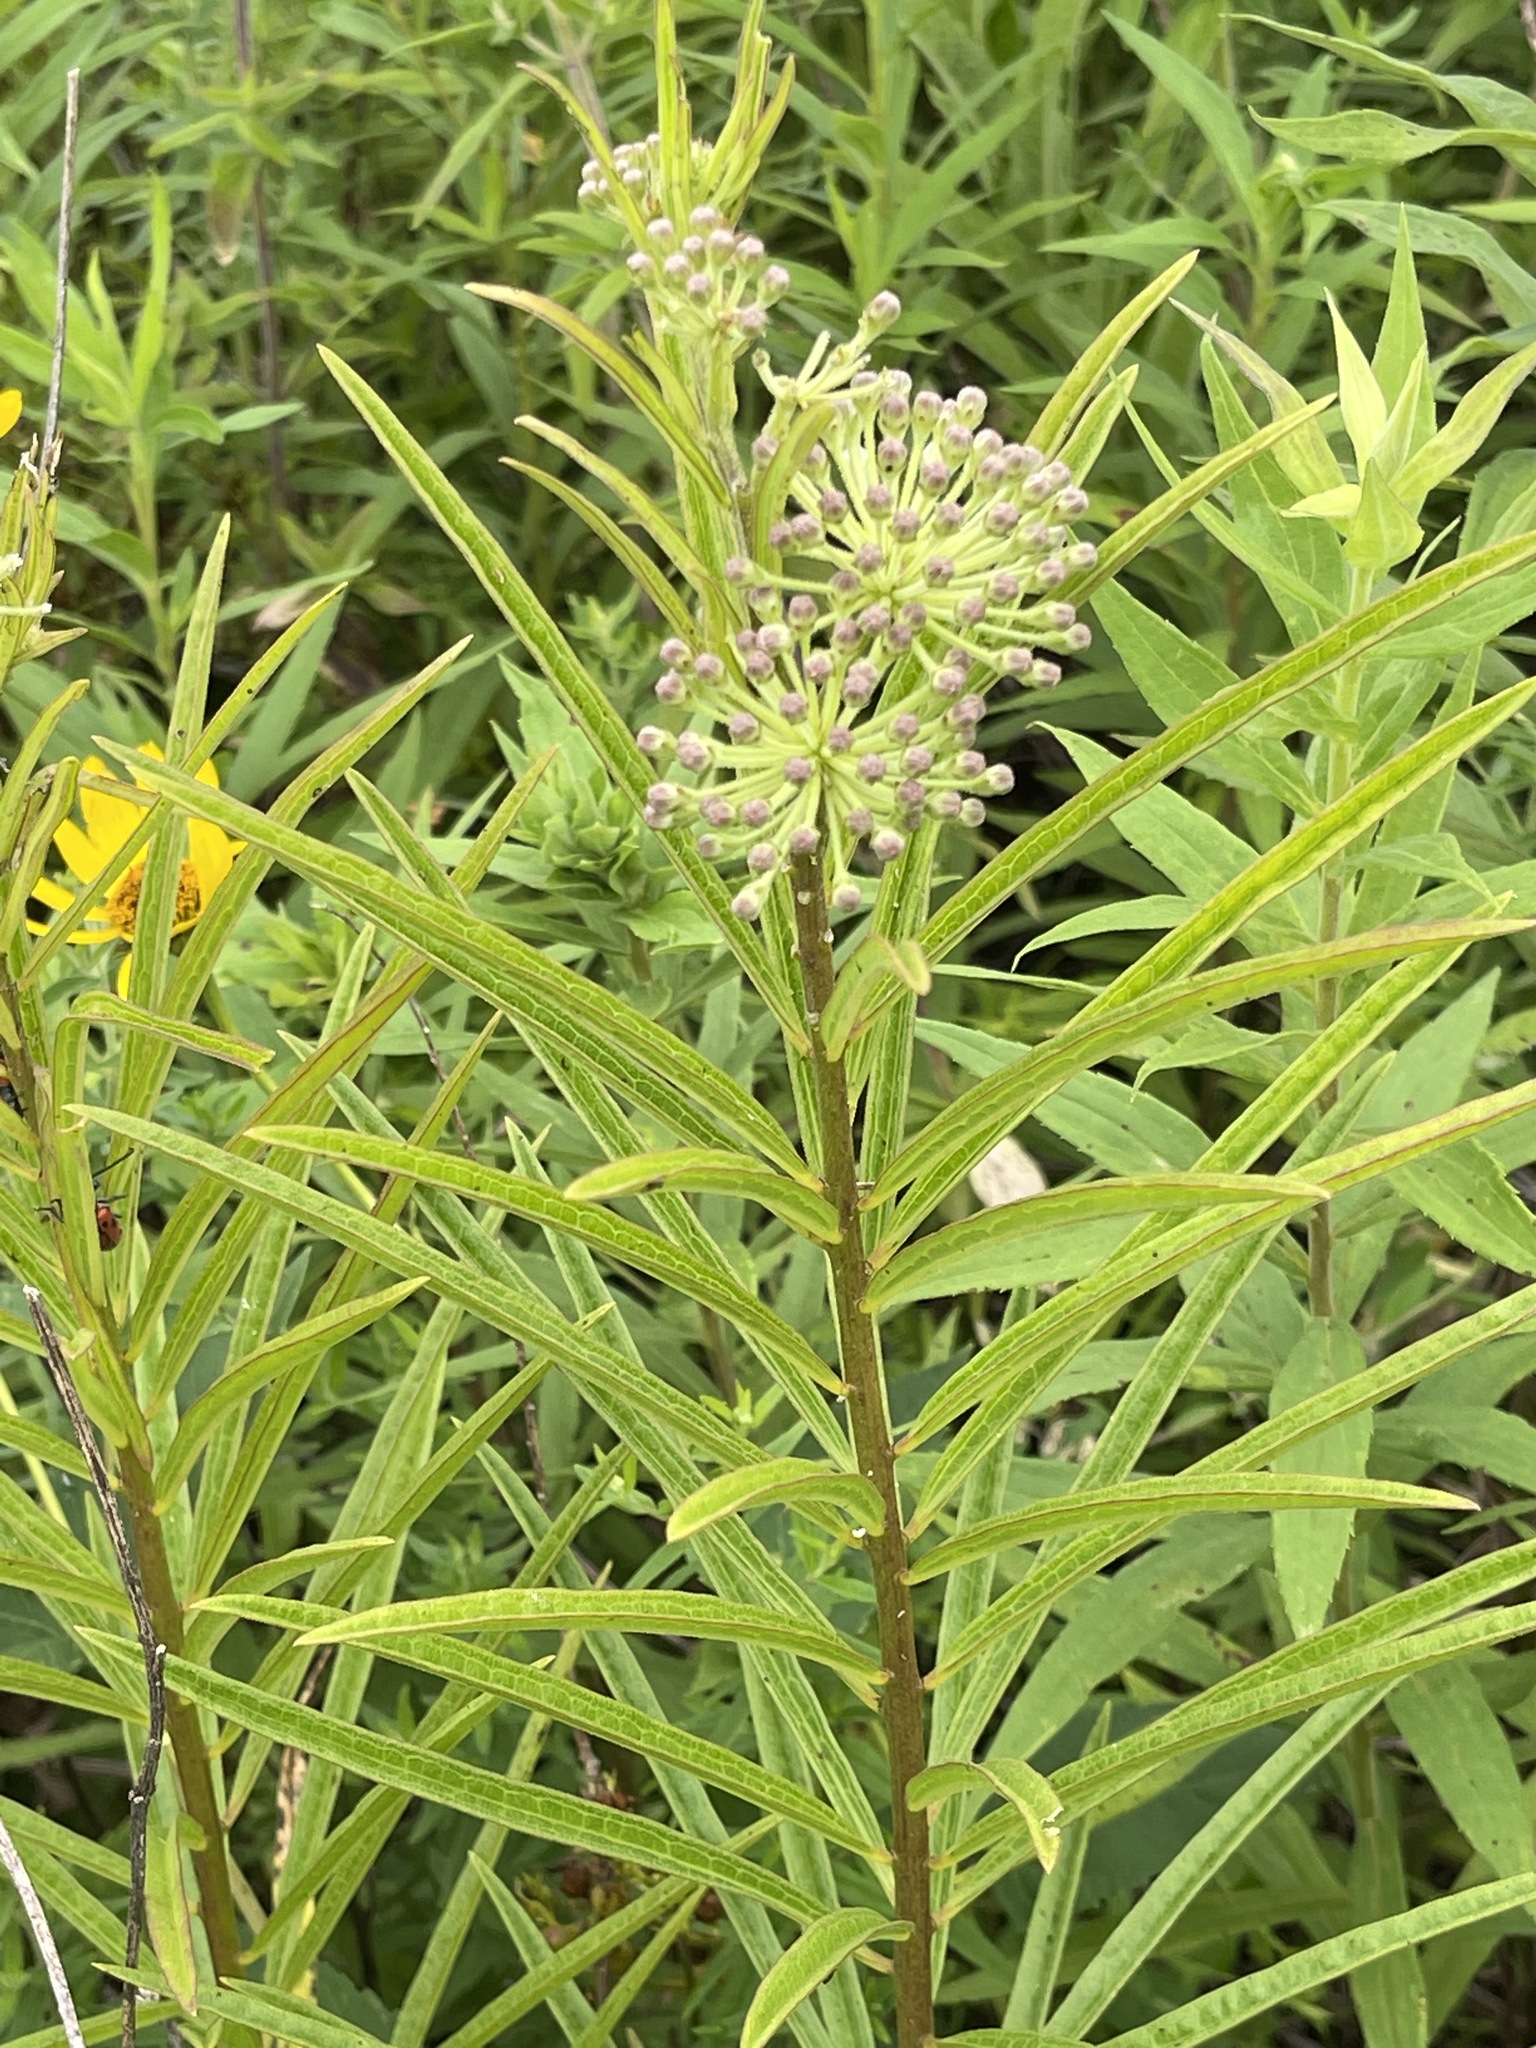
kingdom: Plantae
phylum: Tracheophyta
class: Magnoliopsida
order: Gentianales
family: Apocynaceae
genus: Asclepias
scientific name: Asclepias hirtella
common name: Prairie milkweed
